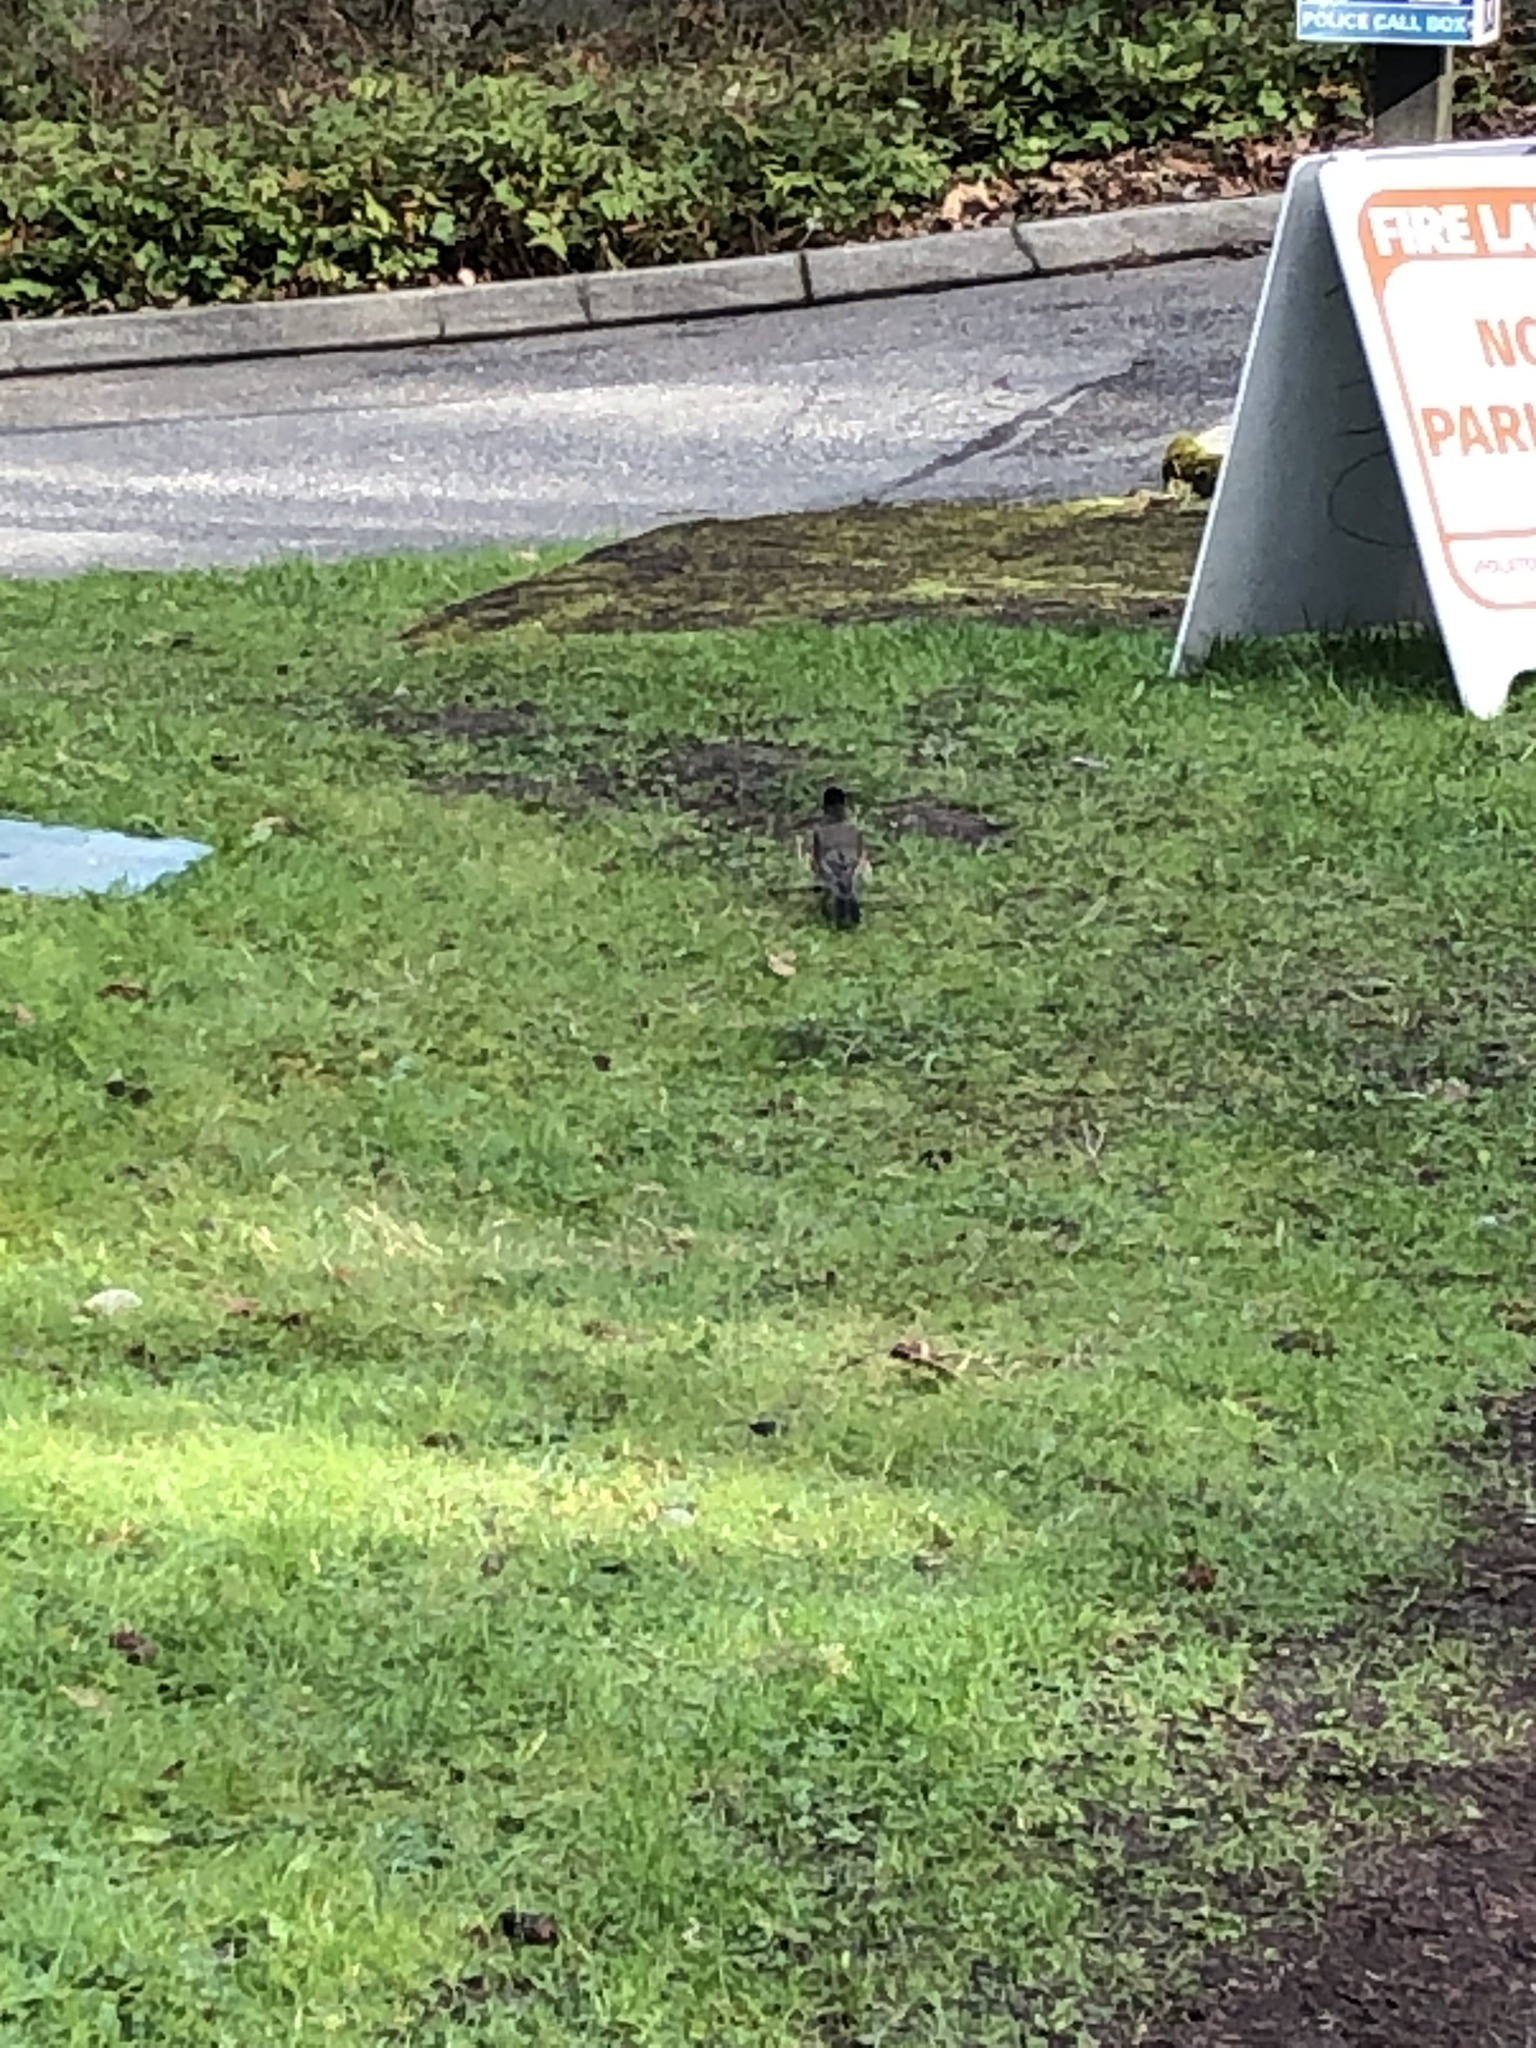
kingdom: Animalia
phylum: Chordata
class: Aves
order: Passeriformes
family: Turdidae
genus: Turdus
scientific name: Turdus migratorius
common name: American robin
